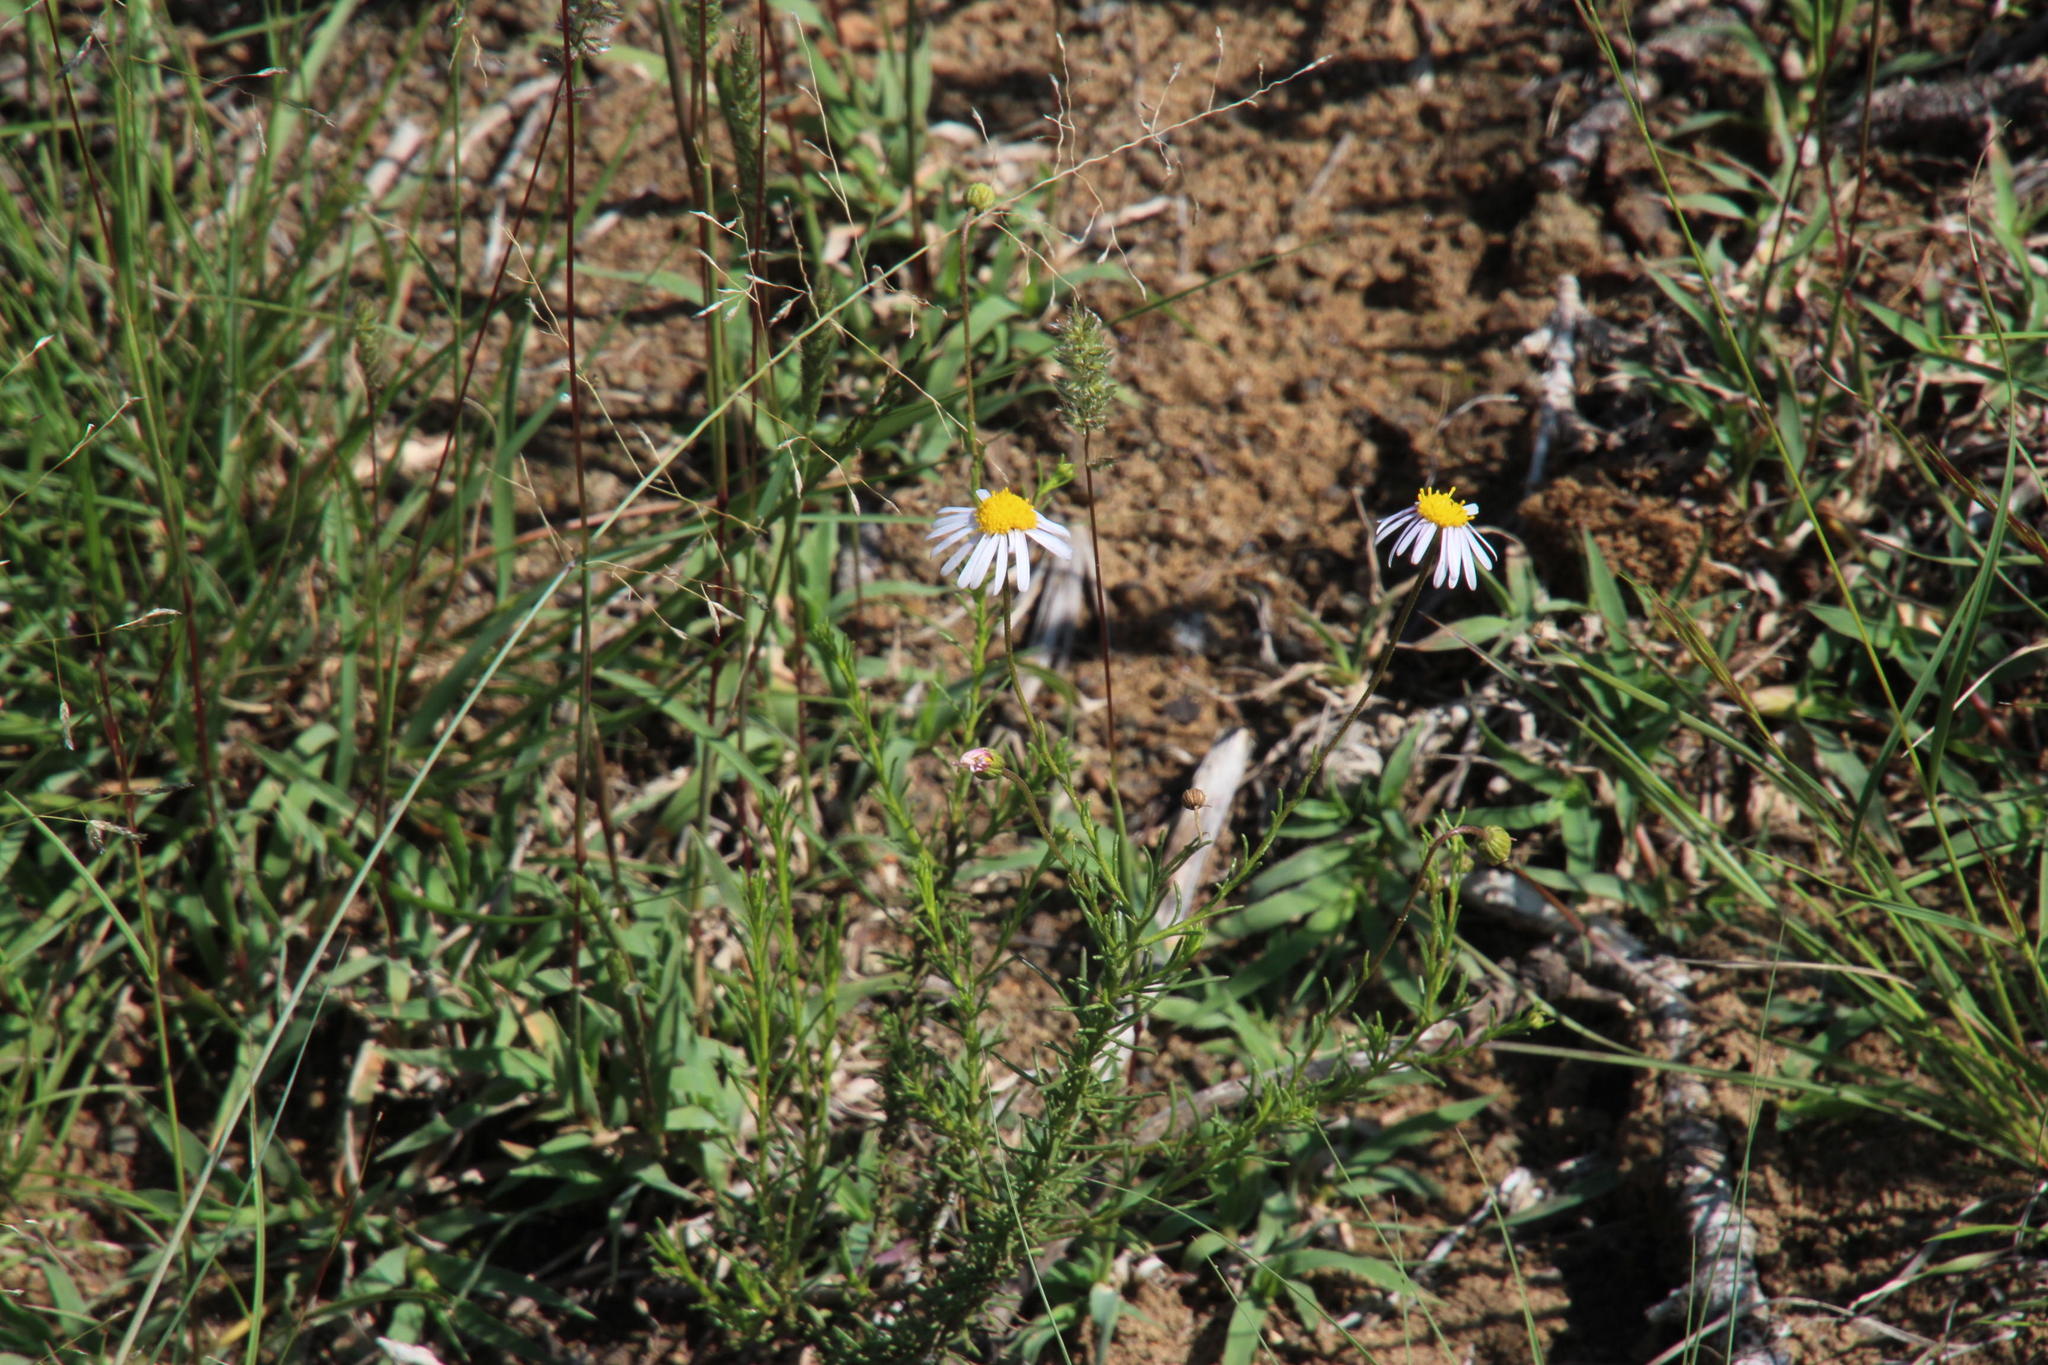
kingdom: Plantae
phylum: Tracheophyta
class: Magnoliopsida
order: Asterales
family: Asteraceae
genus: Felicia
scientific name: Felicia hirsuta
